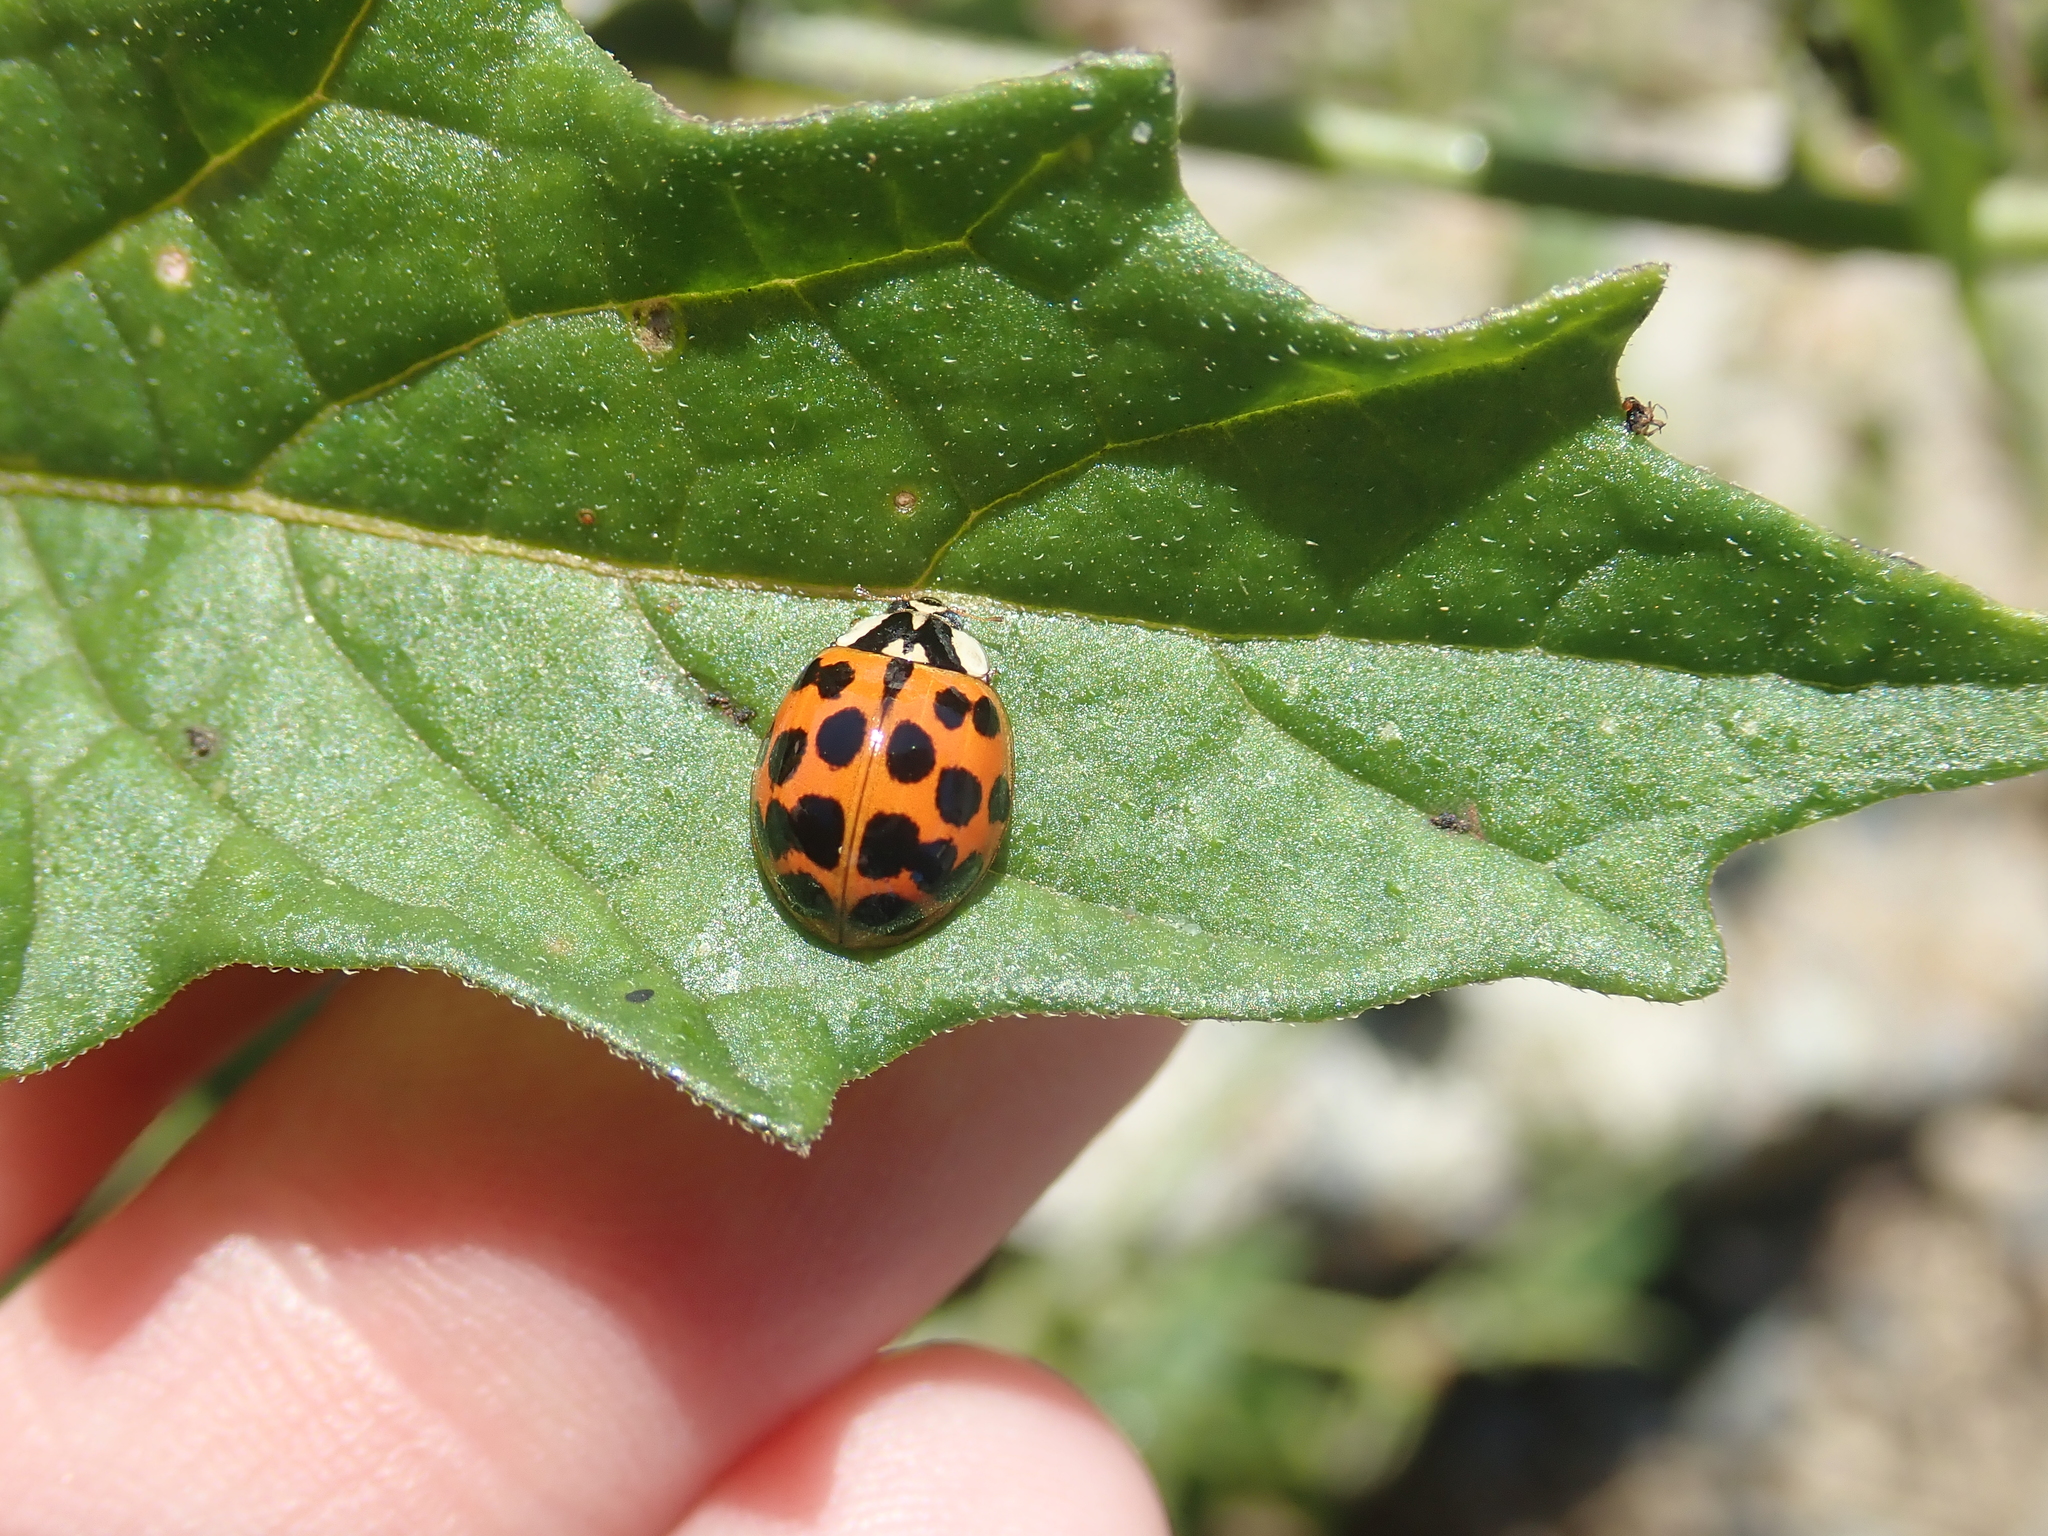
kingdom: Animalia
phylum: Arthropoda
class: Insecta
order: Coleoptera
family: Coccinellidae
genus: Harmonia
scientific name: Harmonia axyridis
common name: Harlequin ladybird
